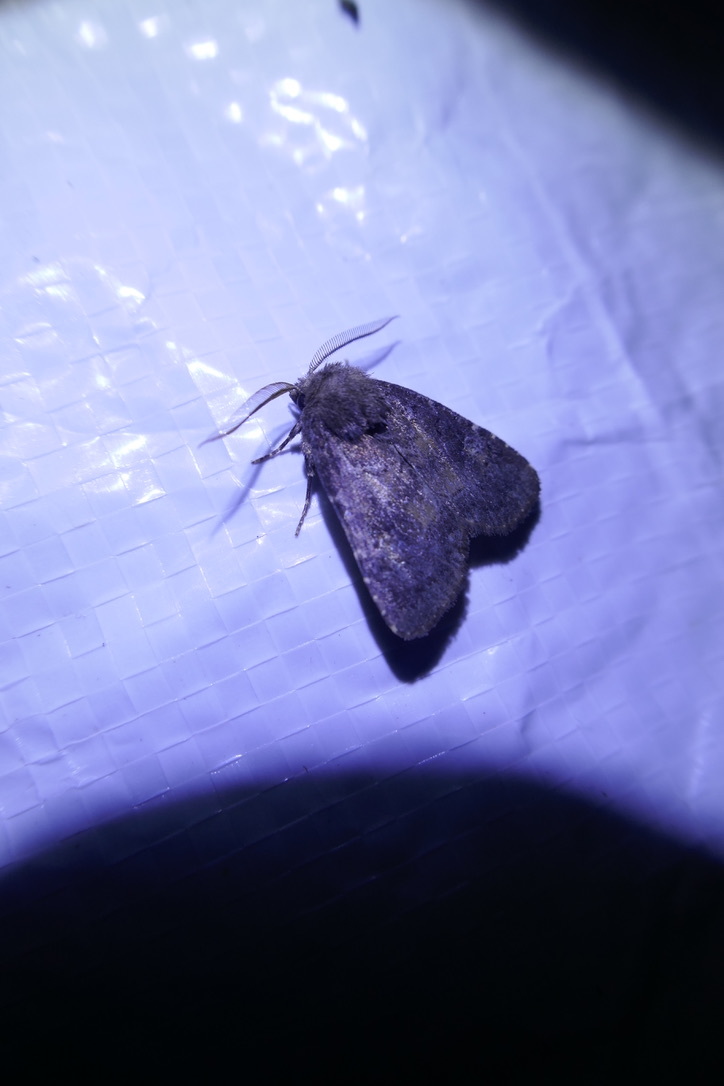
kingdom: Animalia
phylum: Arthropoda
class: Insecta
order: Lepidoptera
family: Noctuidae
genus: Charanyca
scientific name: Charanyca ferruginea
